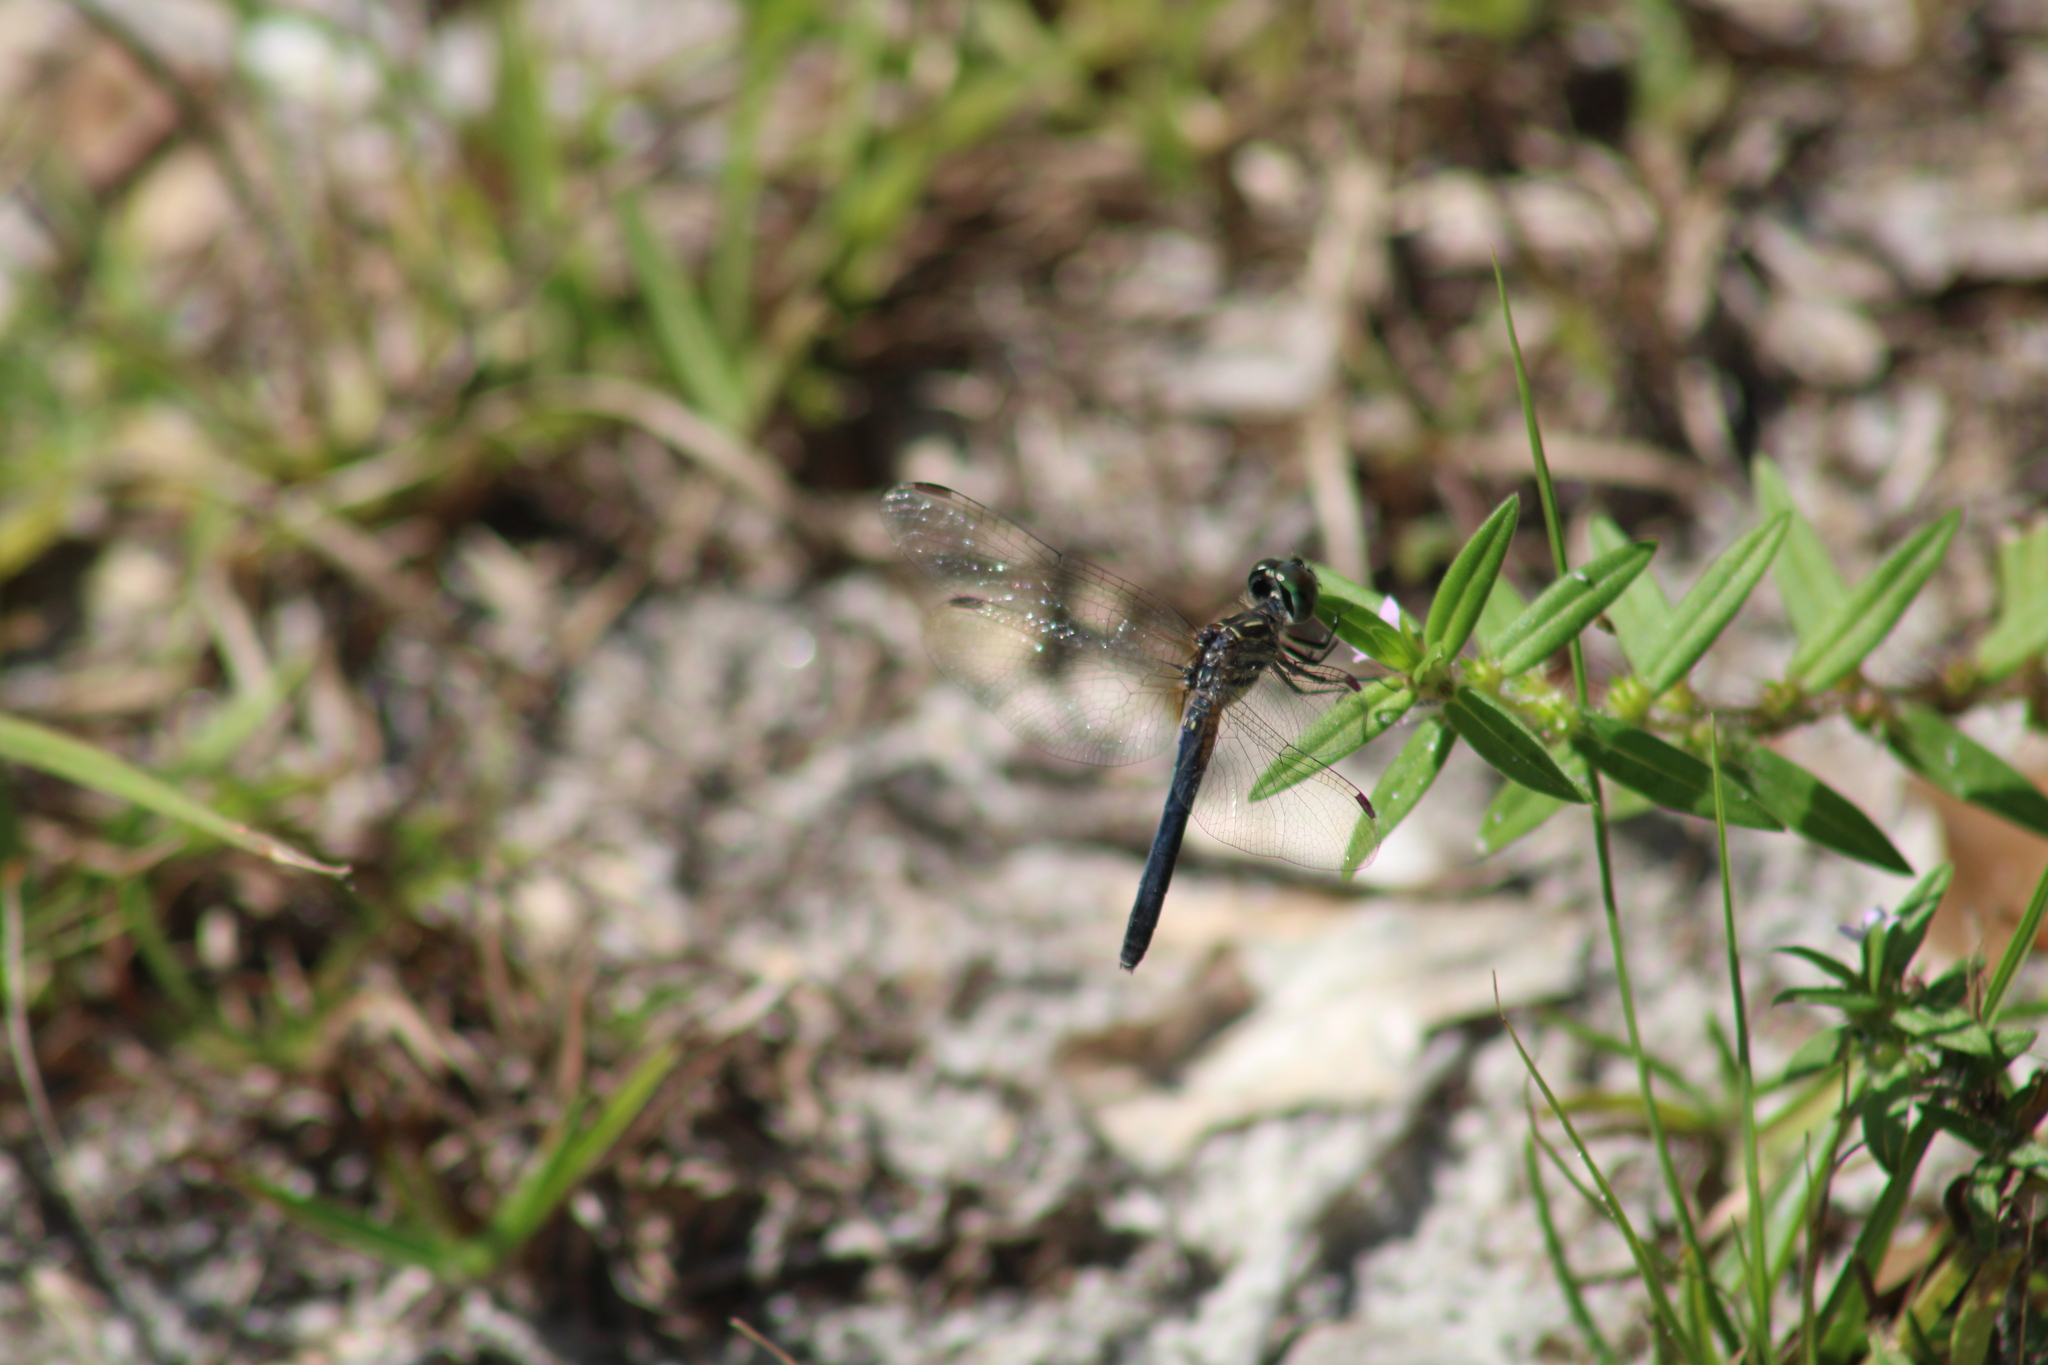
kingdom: Animalia
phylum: Arthropoda
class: Insecta
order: Odonata
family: Libellulidae
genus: Pachydiplax
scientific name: Pachydiplax longipennis
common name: Blue dasher
